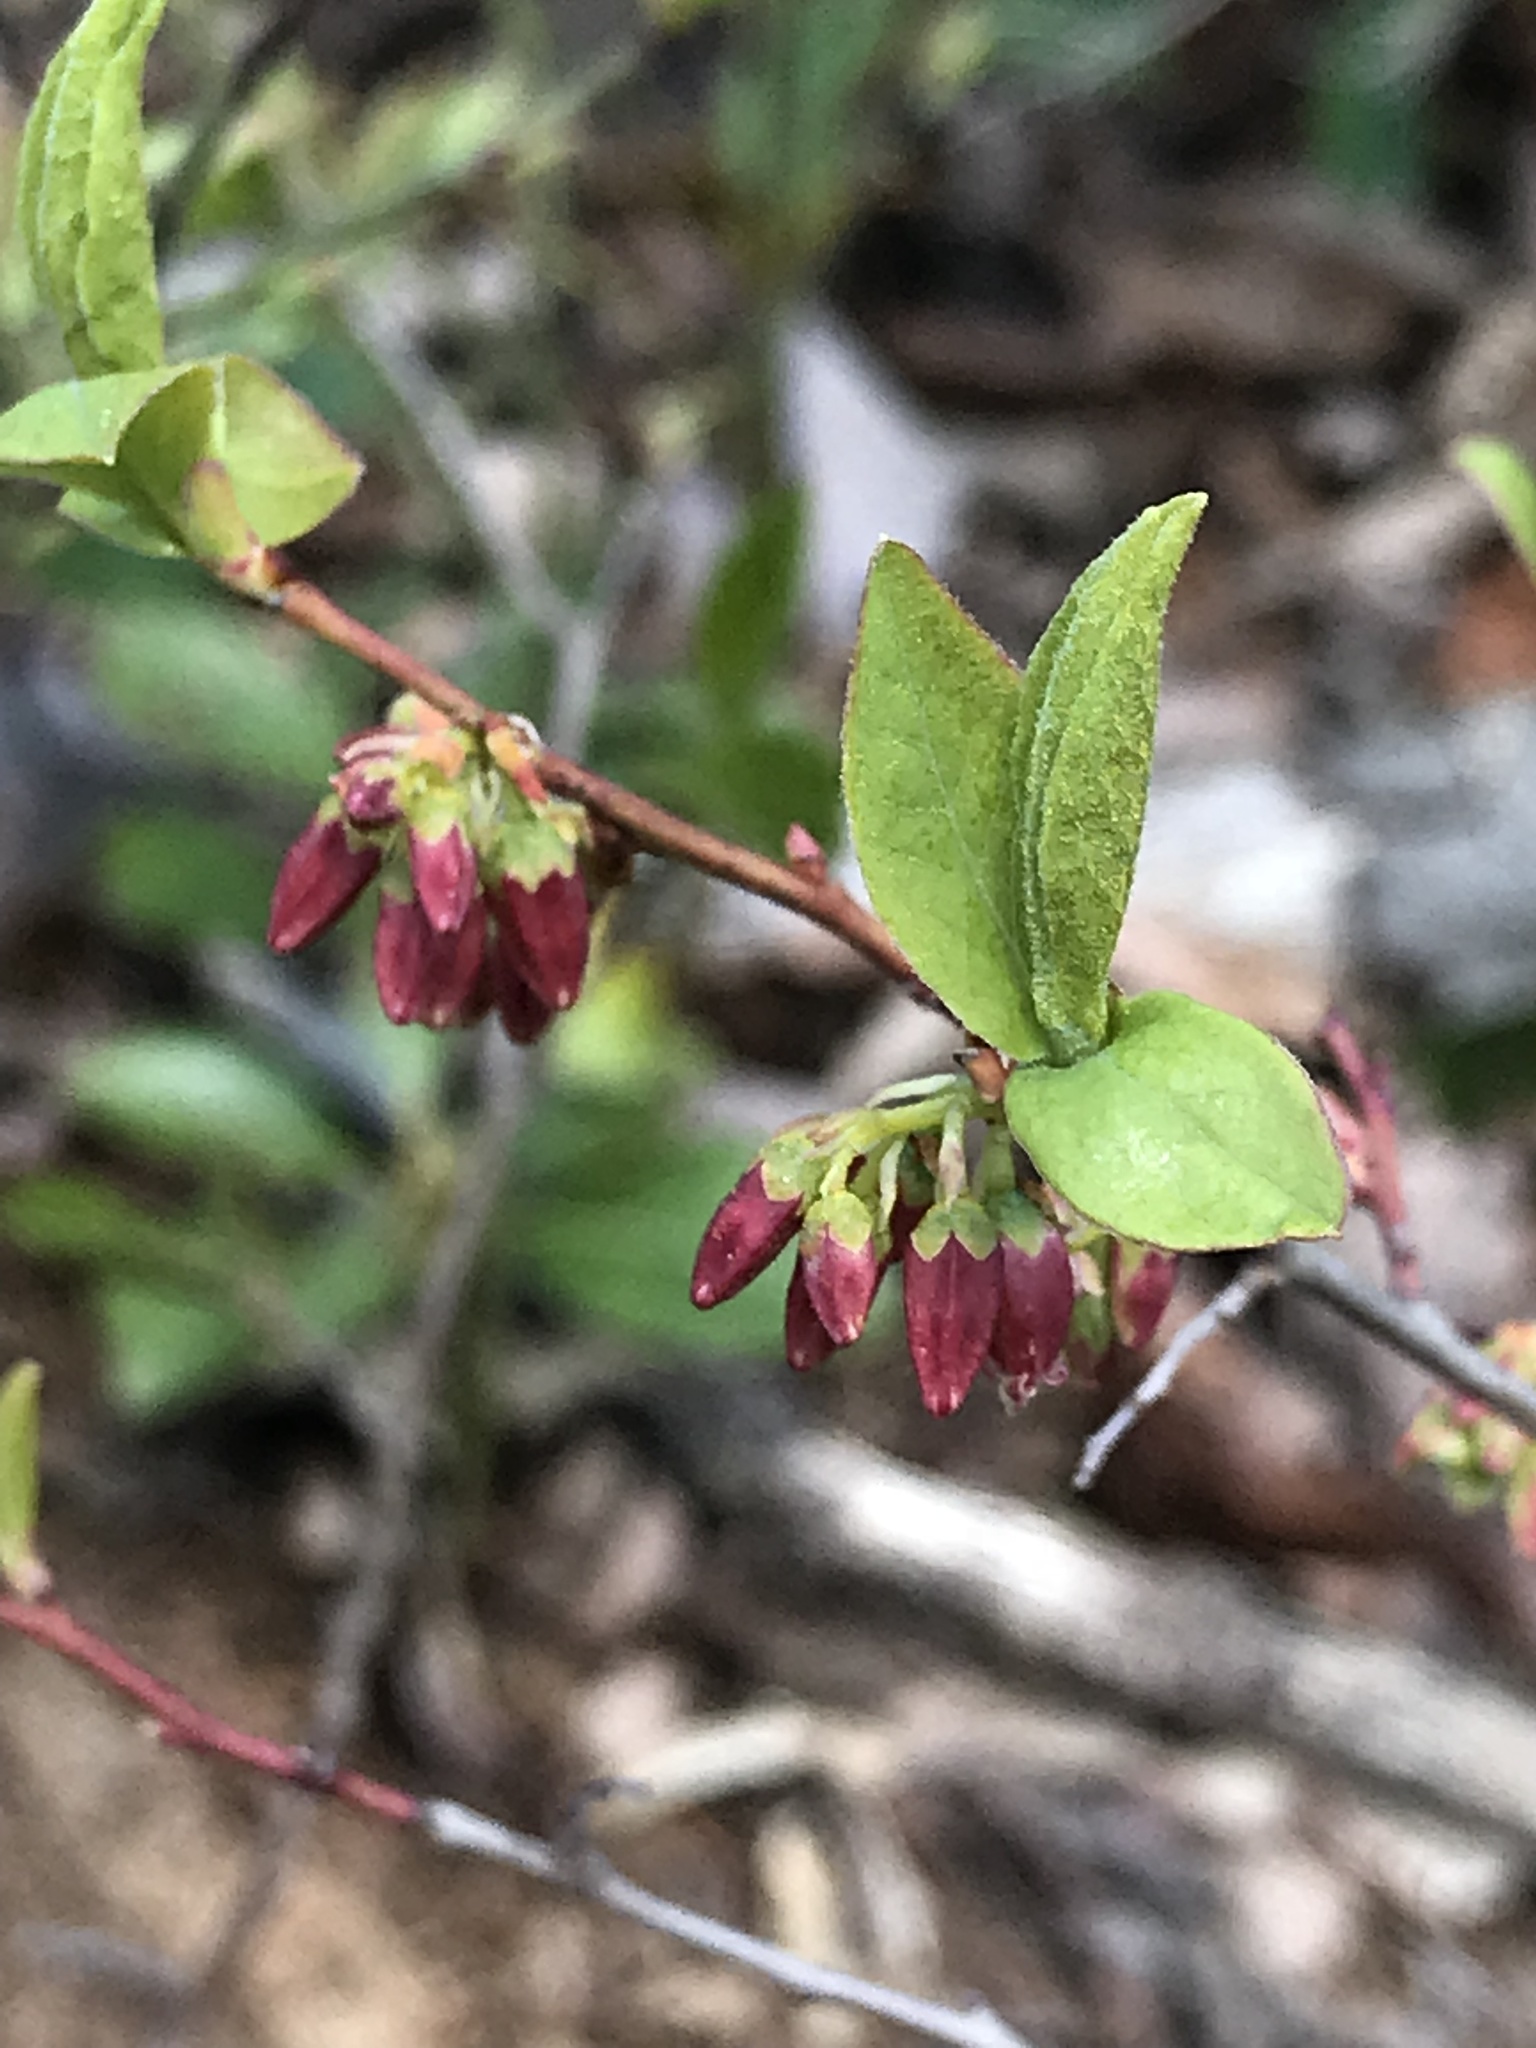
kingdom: Plantae
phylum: Tracheophyta
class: Magnoliopsida
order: Ericales
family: Ericaceae
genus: Gaylussacia
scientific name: Gaylussacia baccata
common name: Black huckleberry
